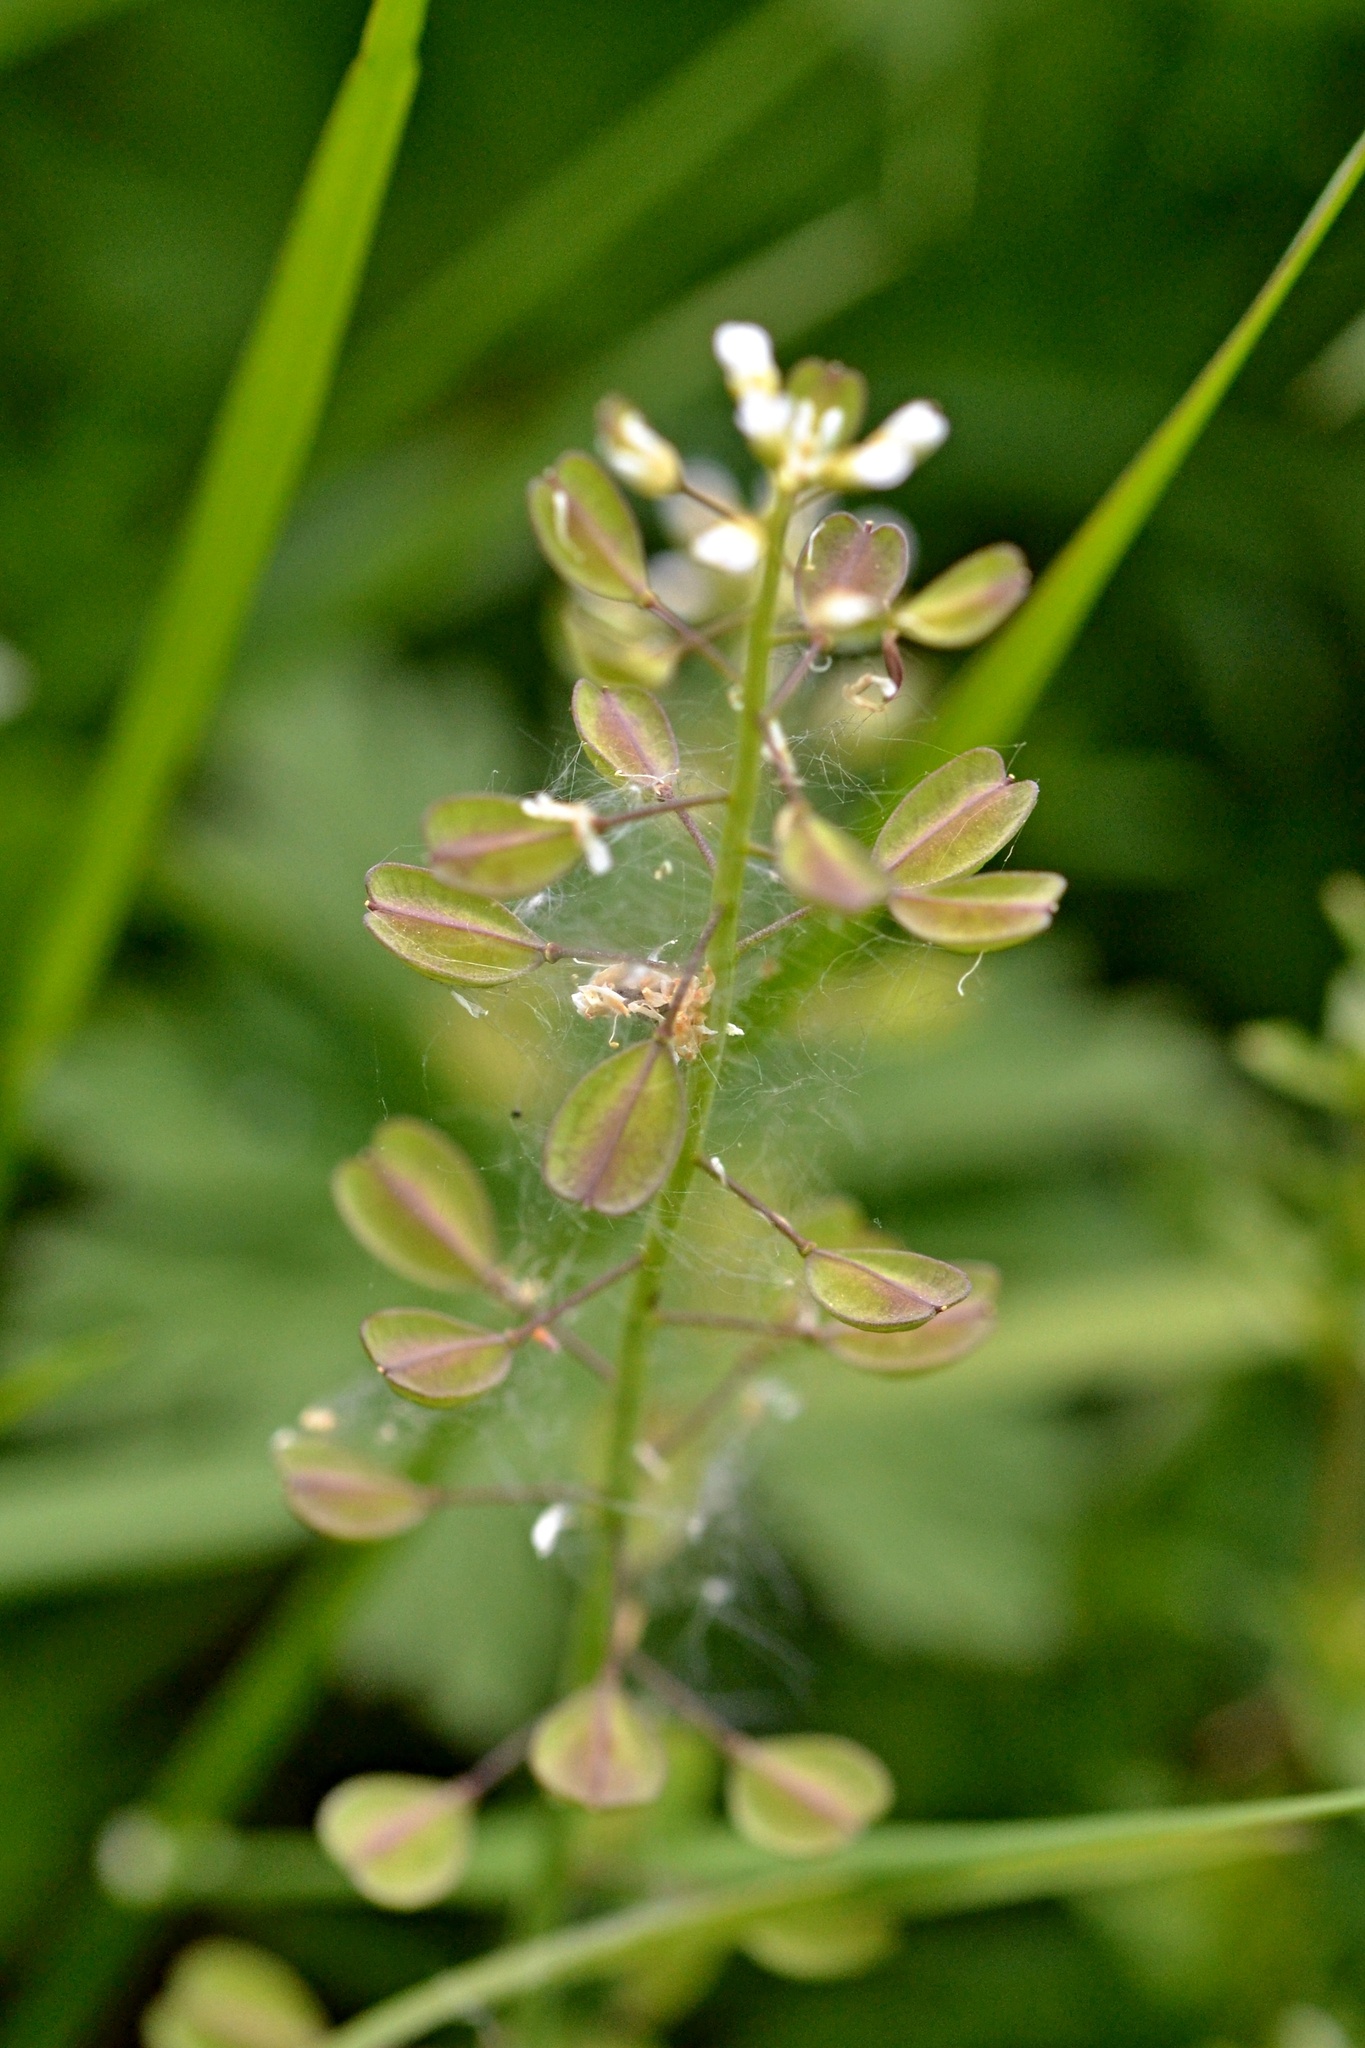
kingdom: Plantae
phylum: Tracheophyta
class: Magnoliopsida
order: Brassicales
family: Brassicaceae
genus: Noccaea
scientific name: Noccaea perfoliata
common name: Perfoliate pennycress
